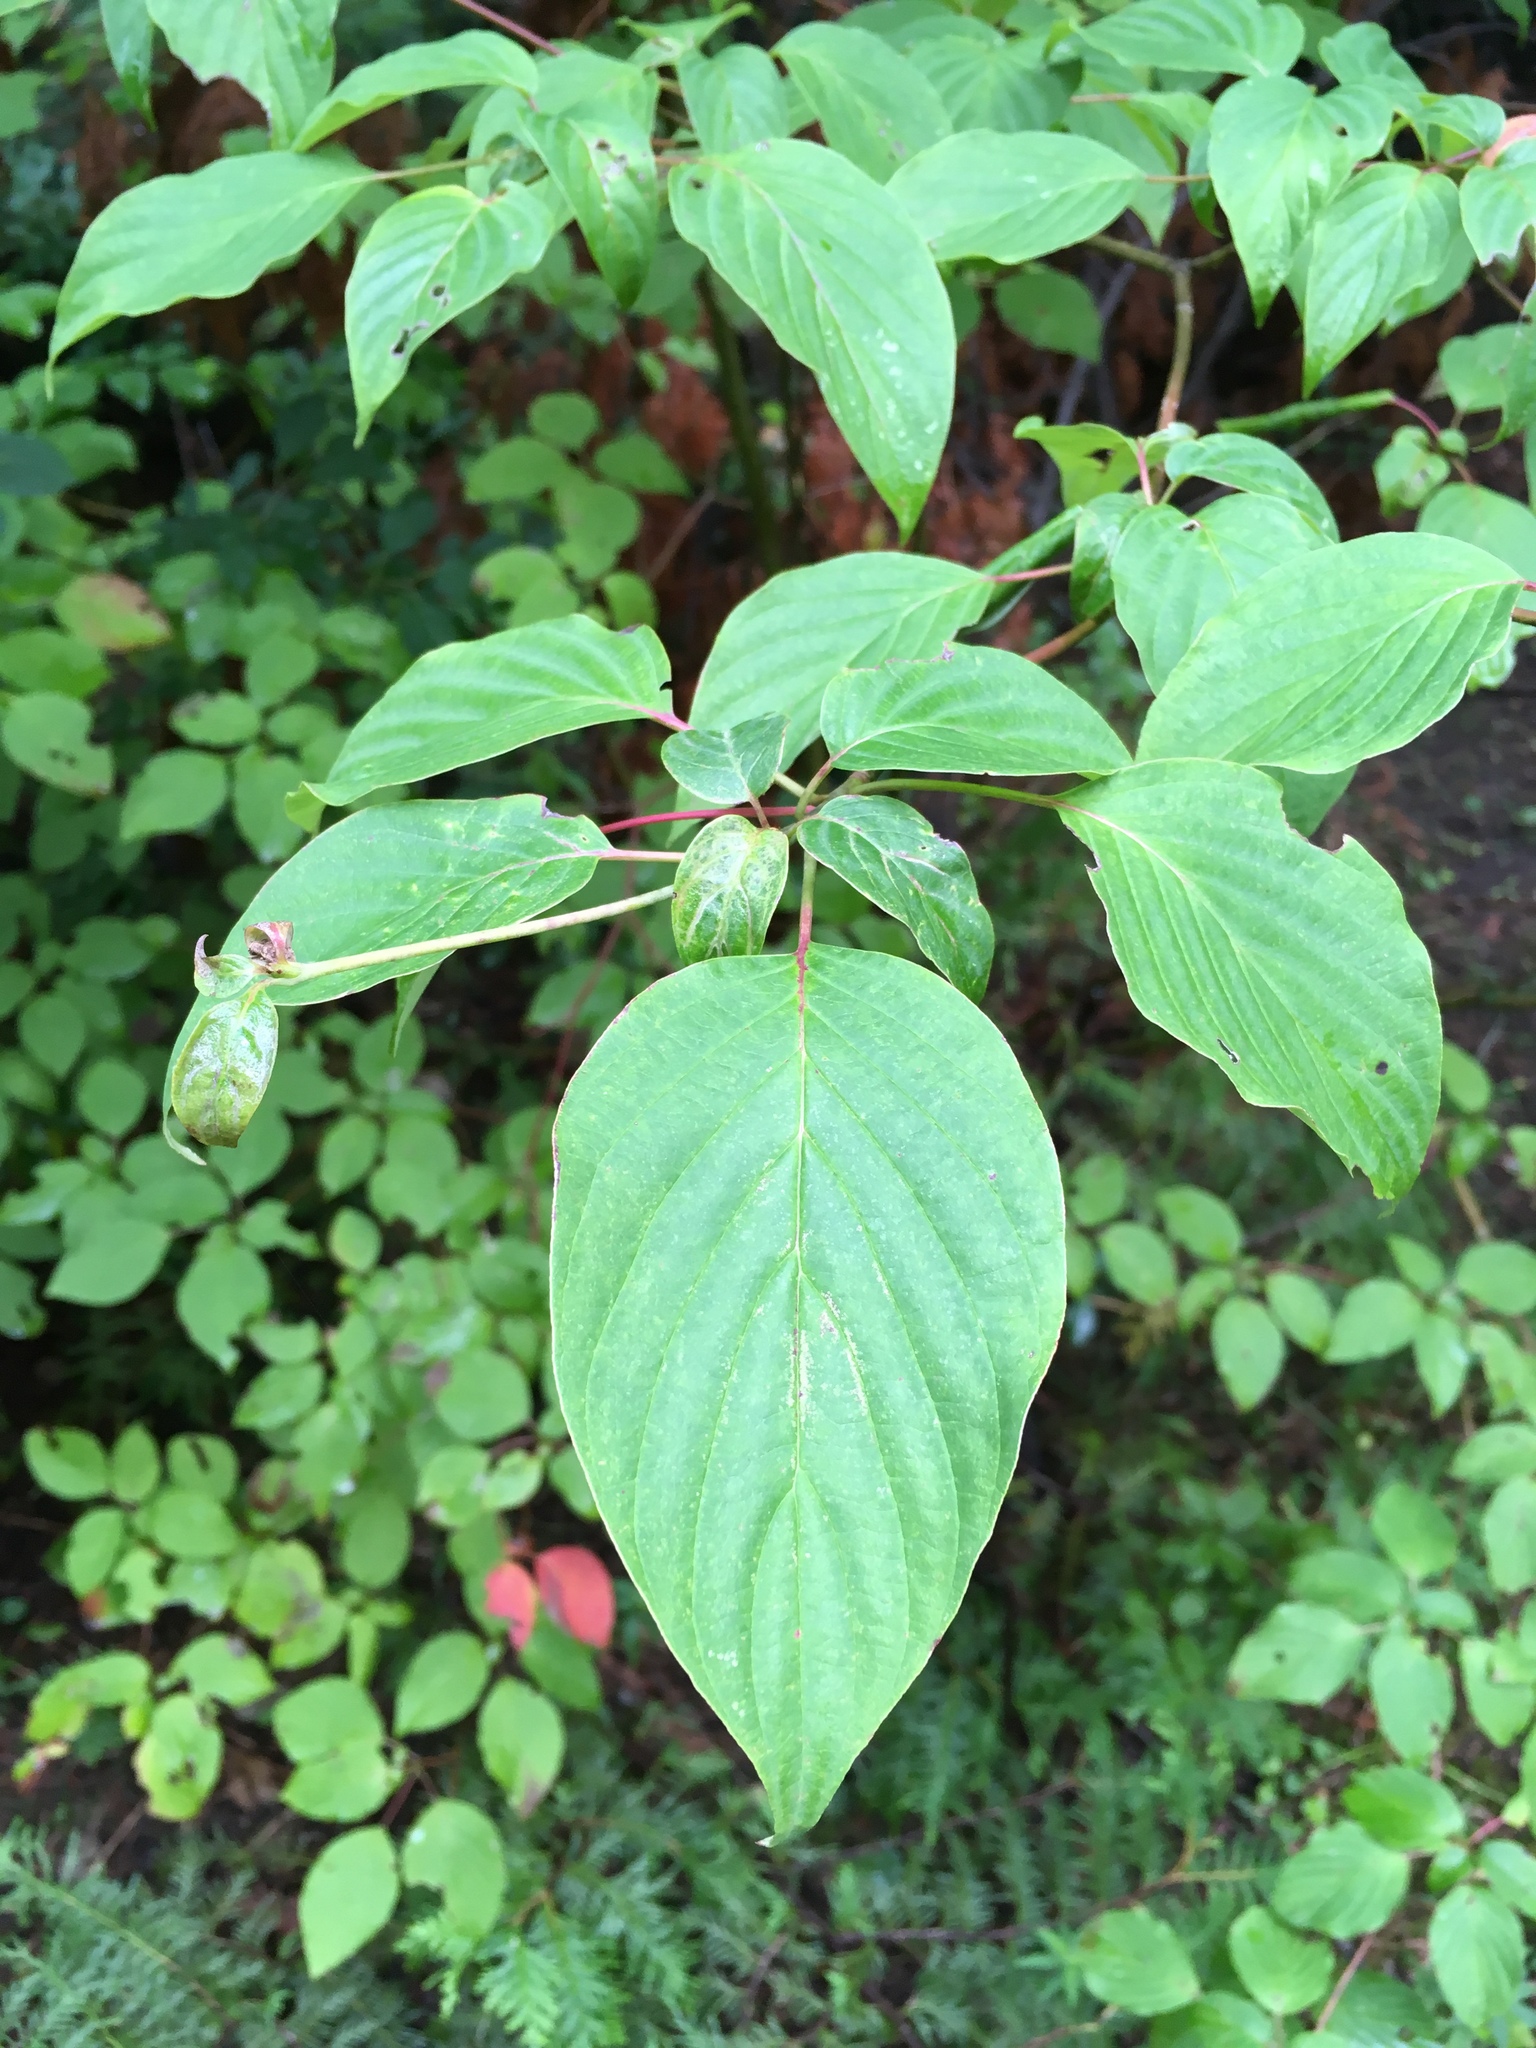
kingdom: Plantae
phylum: Tracheophyta
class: Magnoliopsida
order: Cornales
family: Cornaceae
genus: Cornus
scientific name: Cornus alternifolia
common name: Pagoda dogwood
